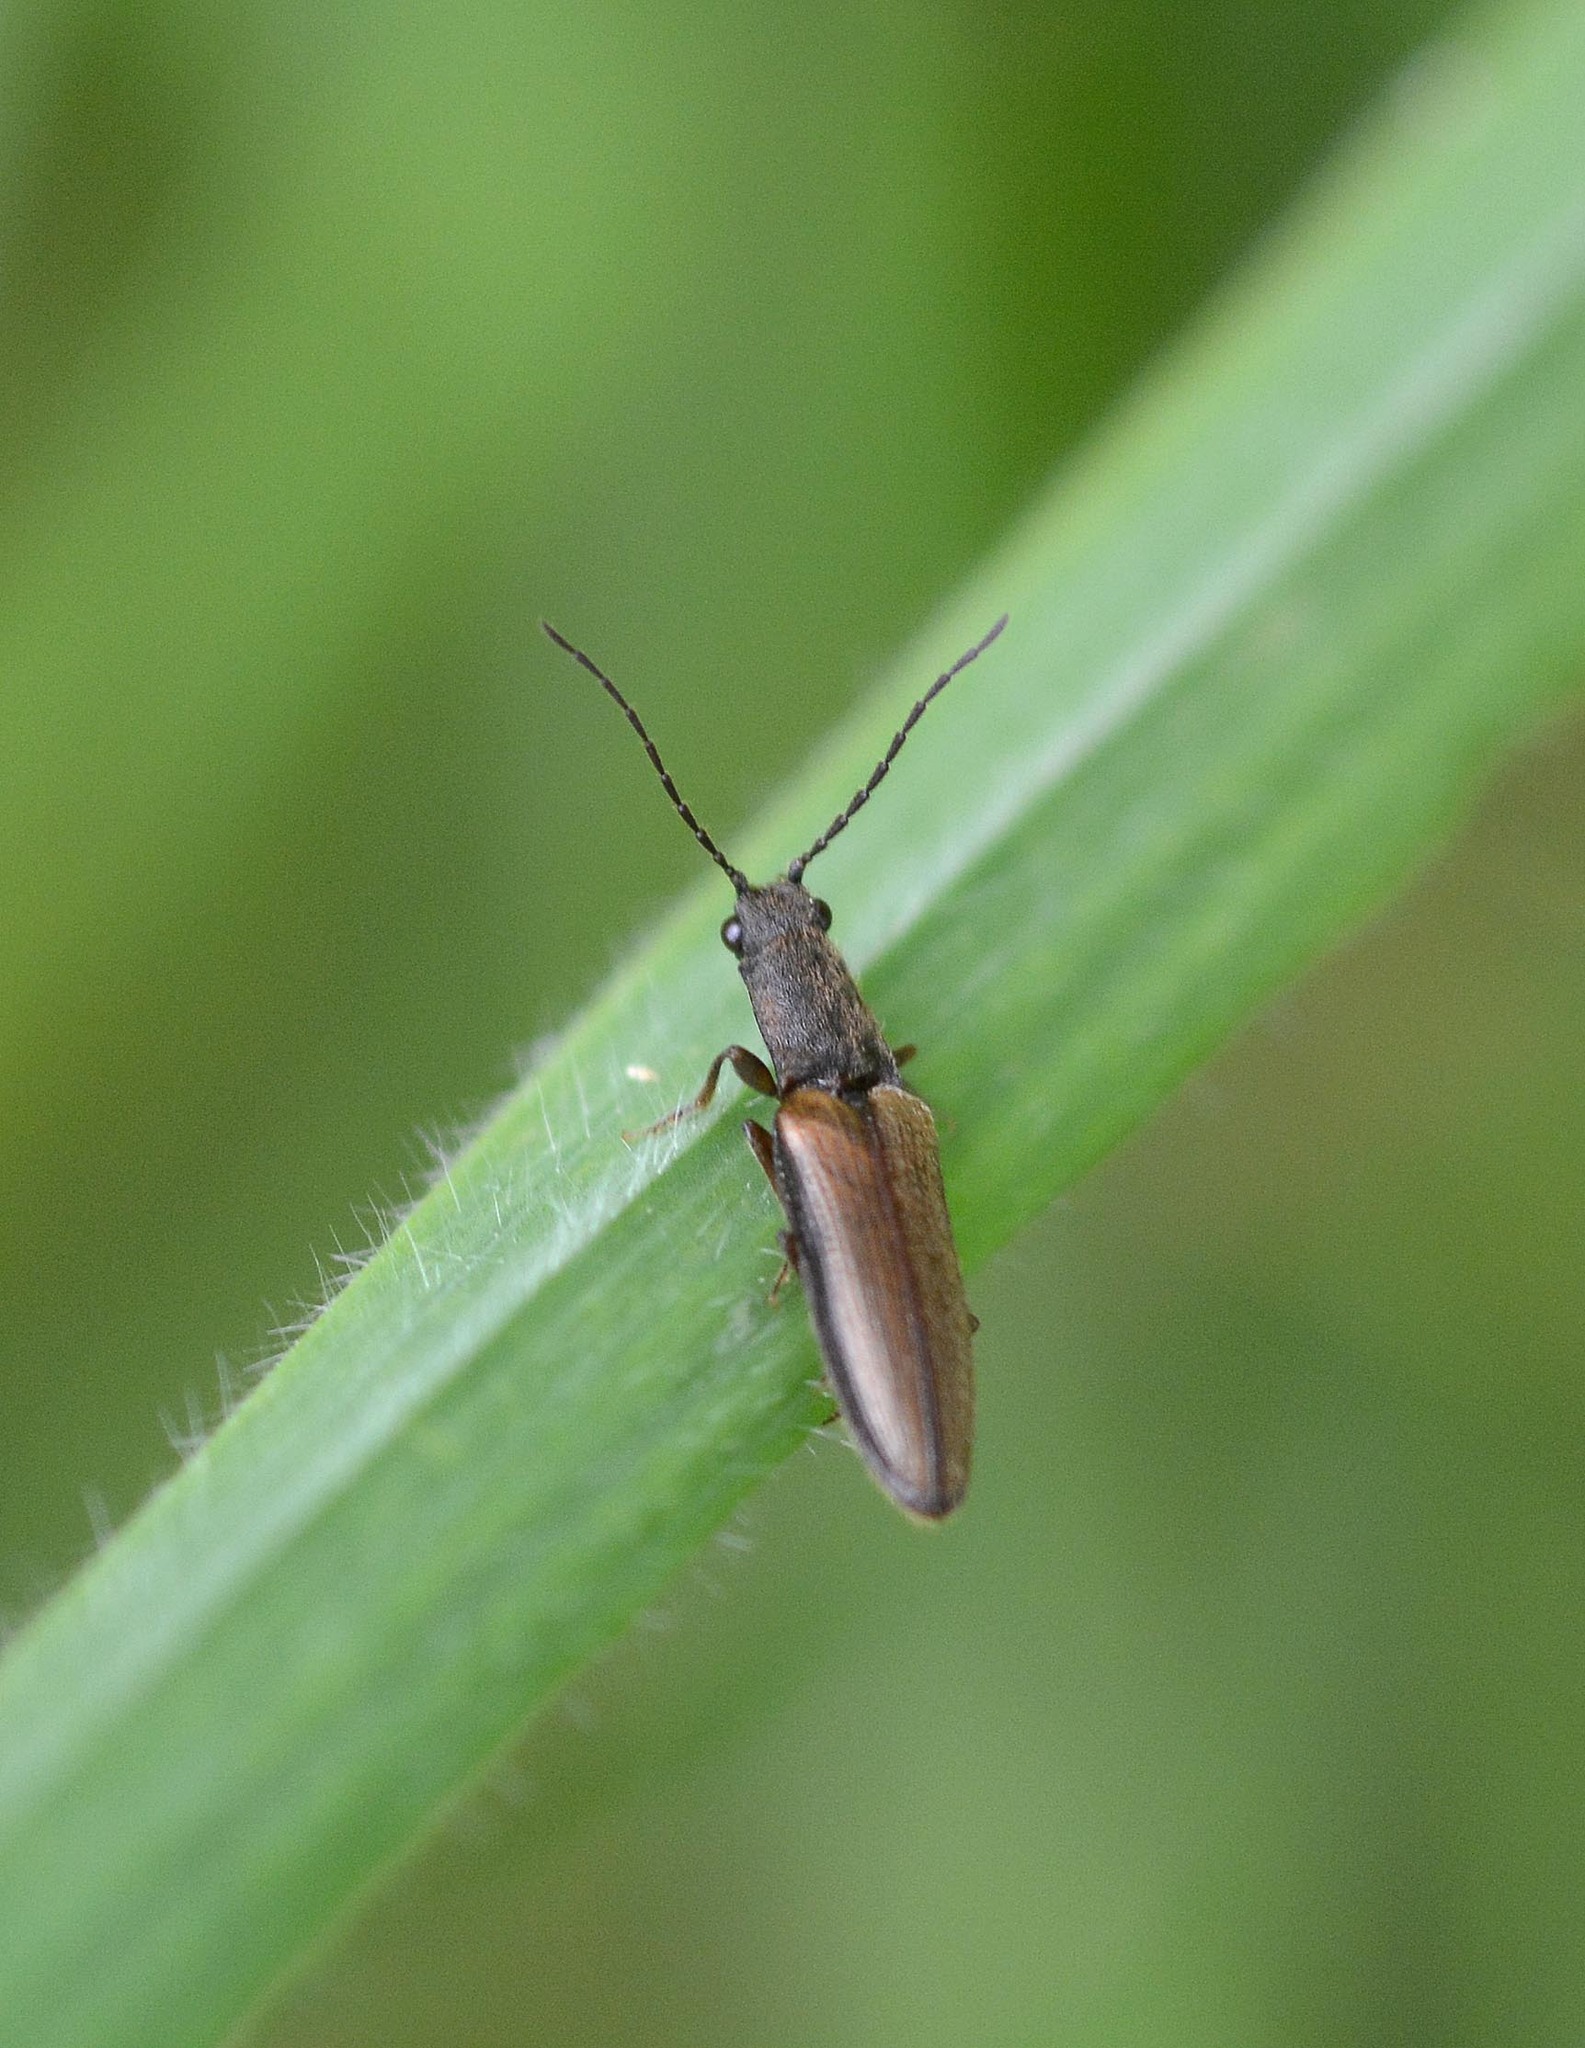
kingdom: Animalia
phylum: Arthropoda
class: Insecta
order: Coleoptera
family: Elateridae
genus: Athous
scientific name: Athous bicolor
